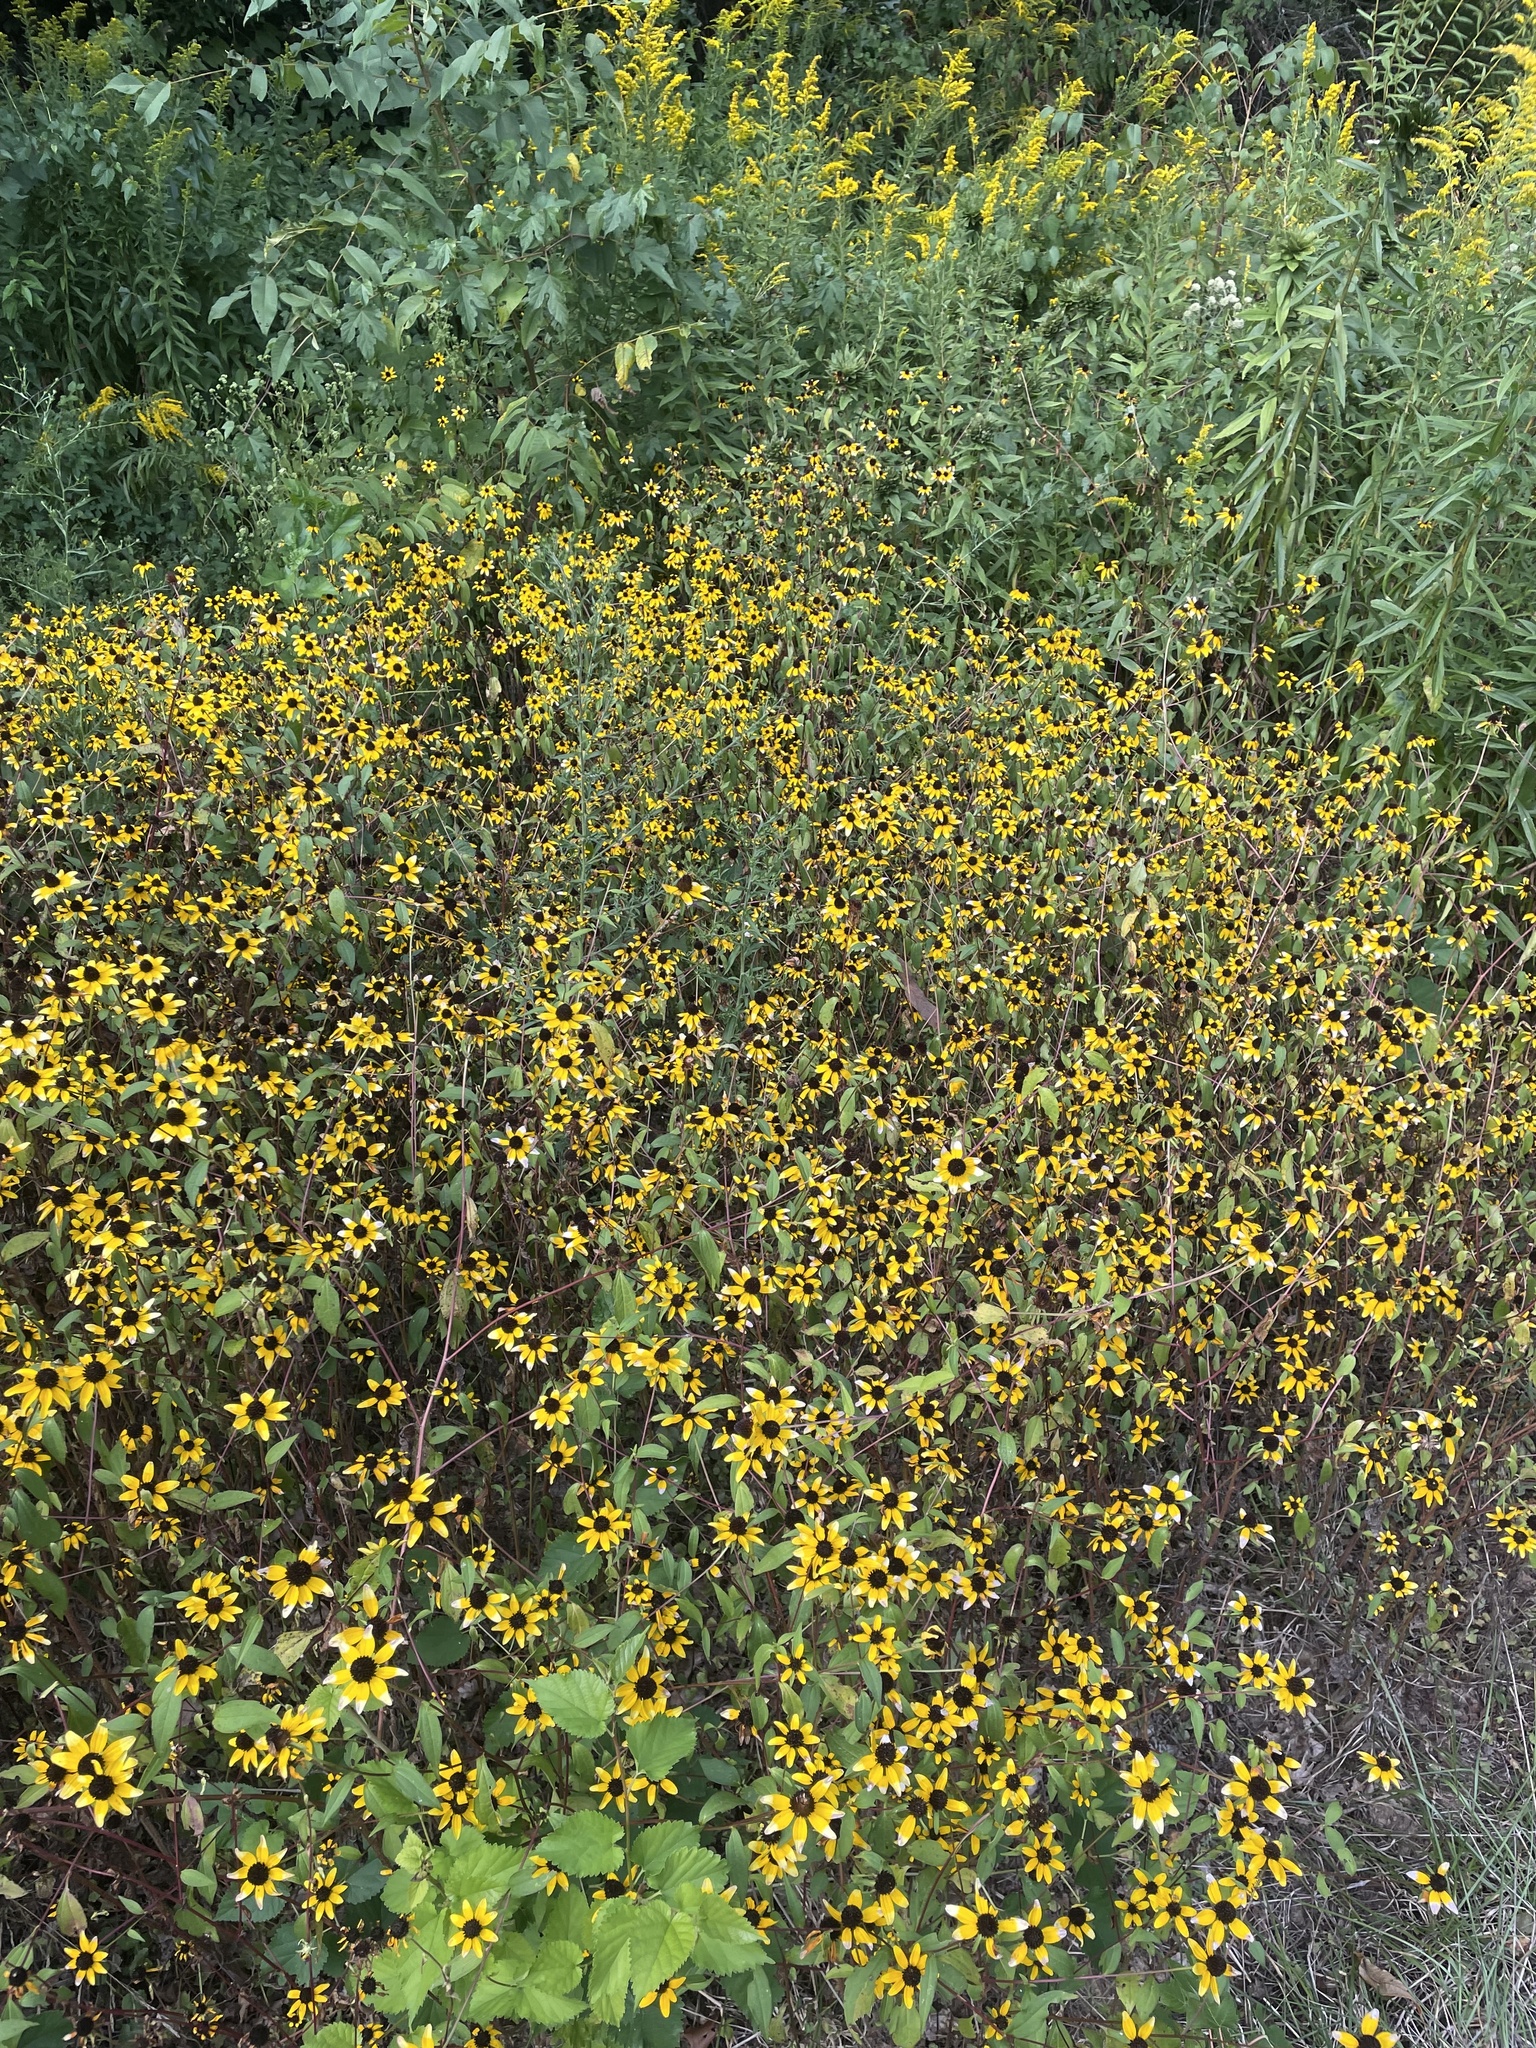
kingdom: Plantae
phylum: Tracheophyta
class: Magnoliopsida
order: Asterales
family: Asteraceae
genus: Rudbeckia
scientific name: Rudbeckia triloba
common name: Thin-leaved coneflower
